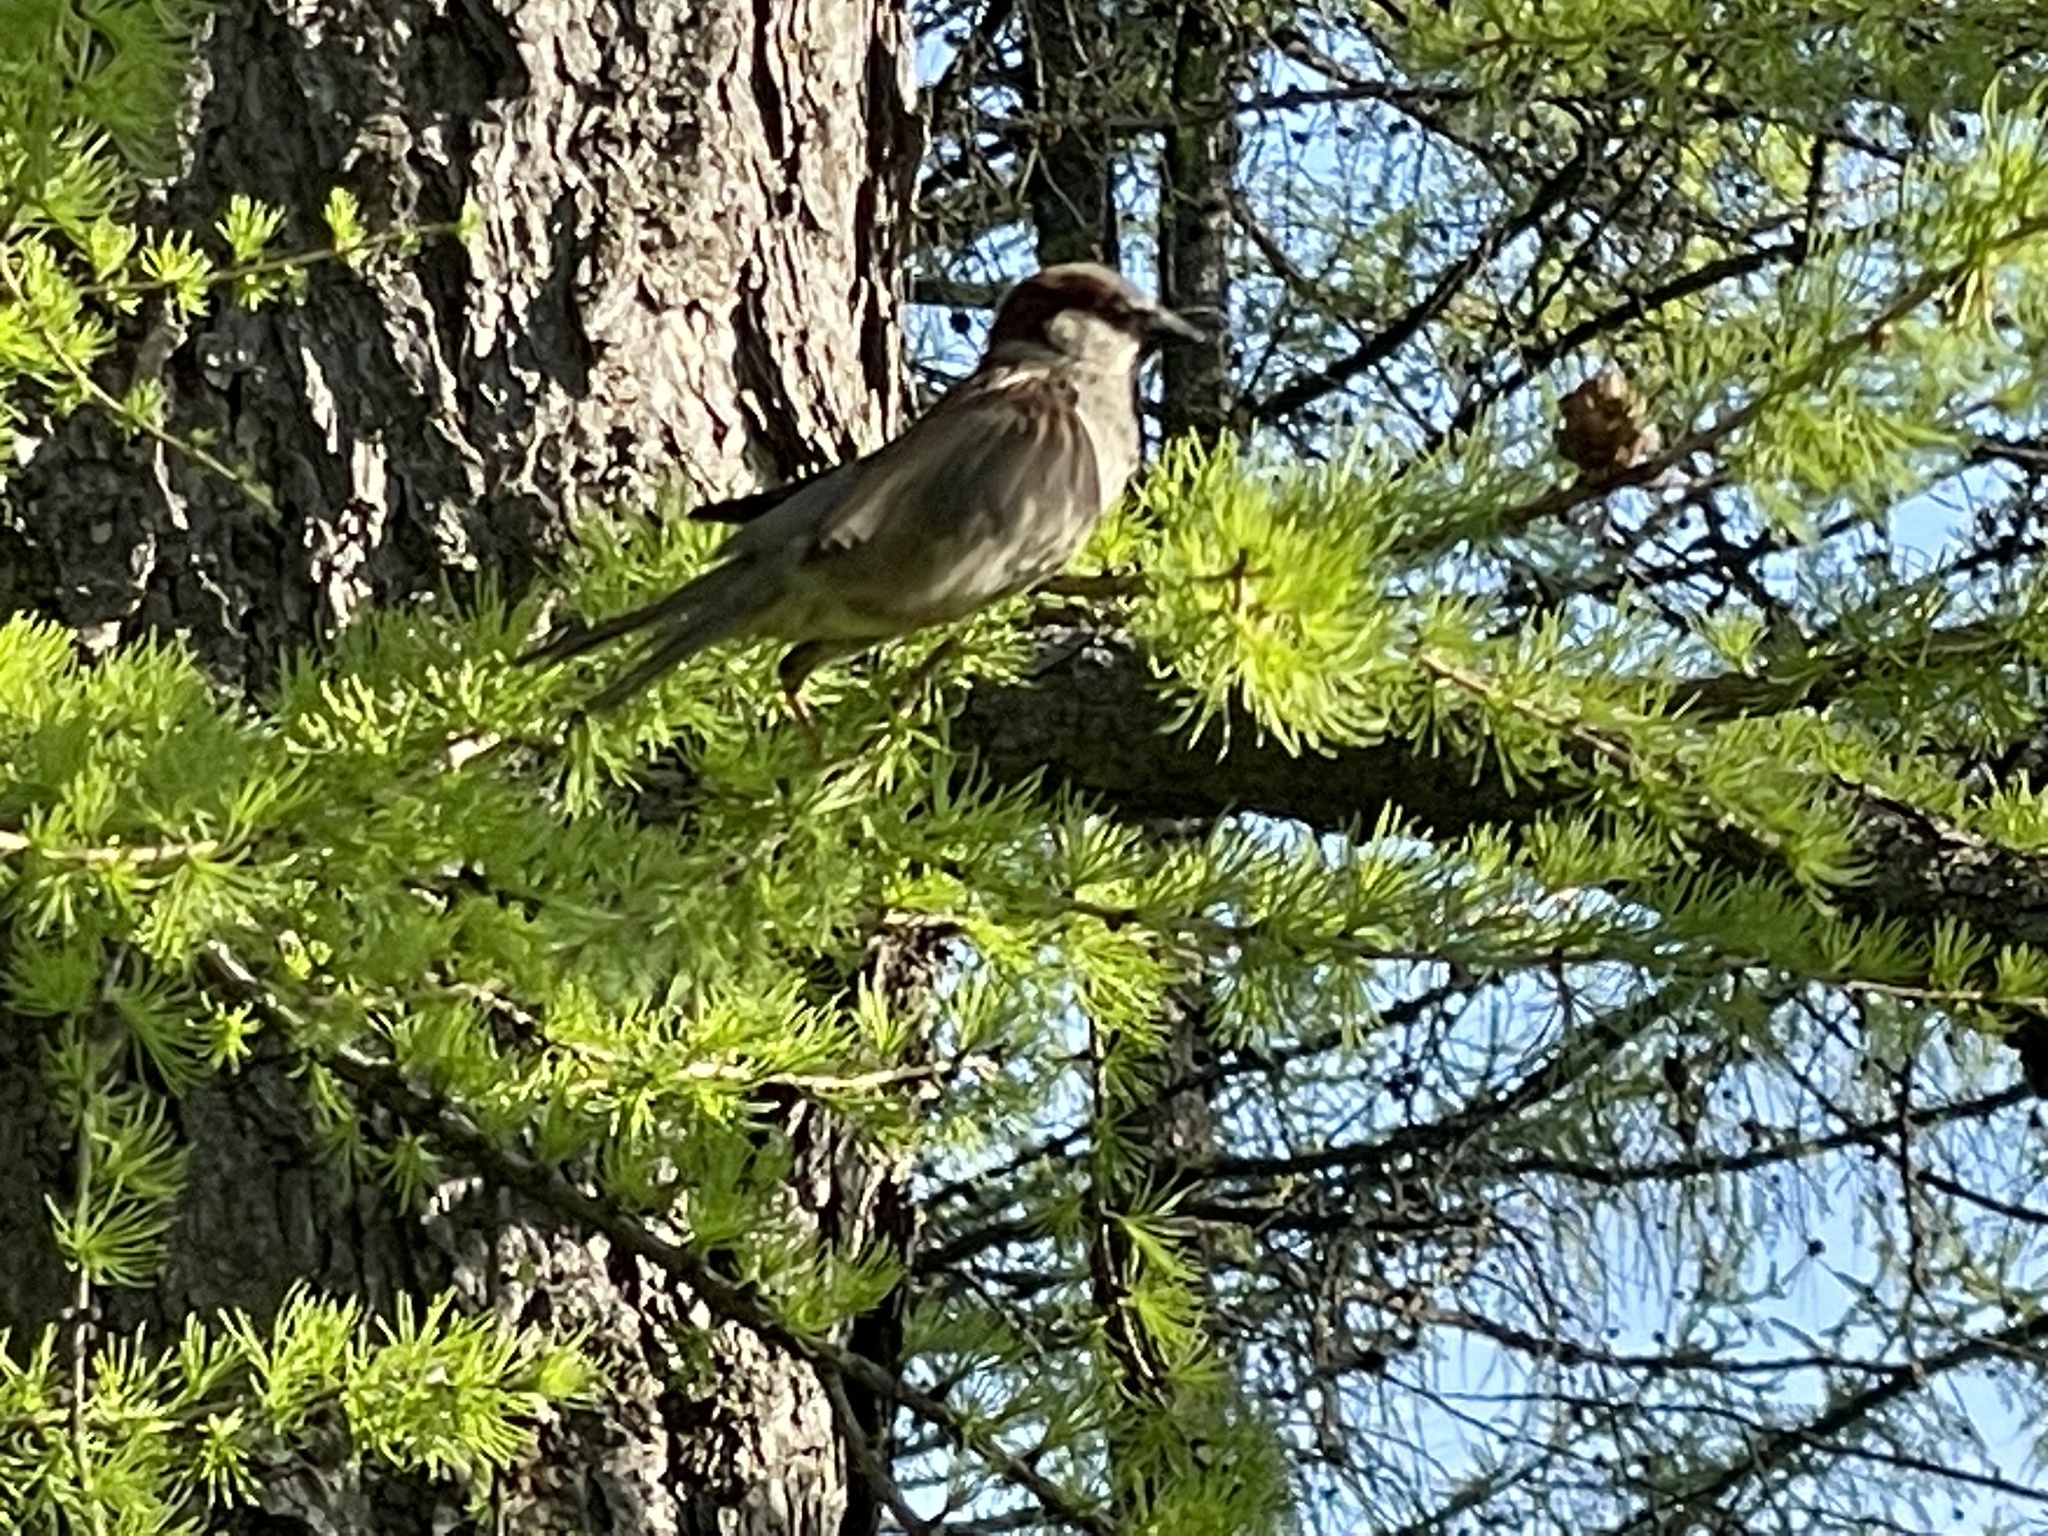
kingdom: Animalia
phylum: Chordata
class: Aves
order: Passeriformes
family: Passeridae
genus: Passer
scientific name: Passer domesticus
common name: House sparrow
